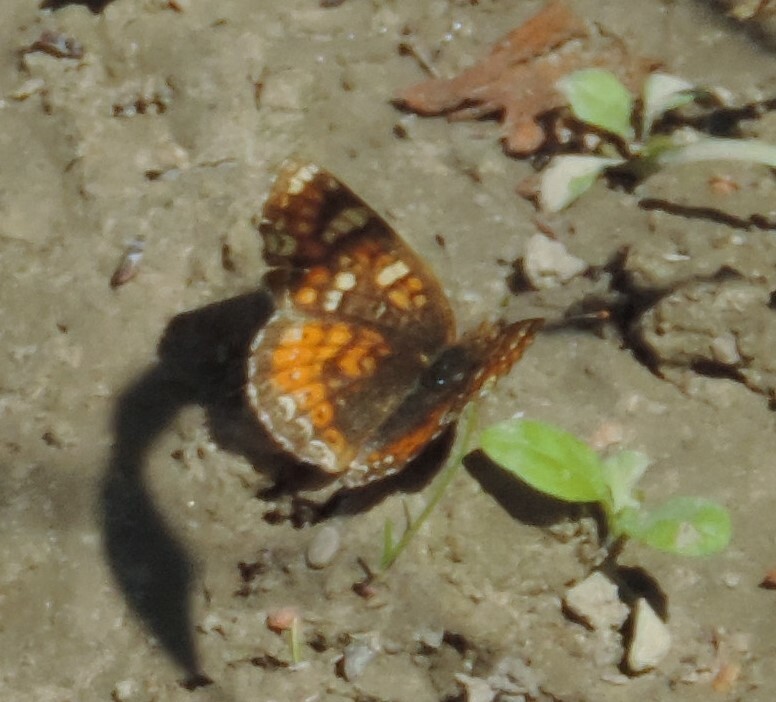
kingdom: Animalia
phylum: Arthropoda
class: Insecta
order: Lepidoptera
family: Nymphalidae
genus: Phyciodes
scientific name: Phyciodes tharos
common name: Pearl crescent
